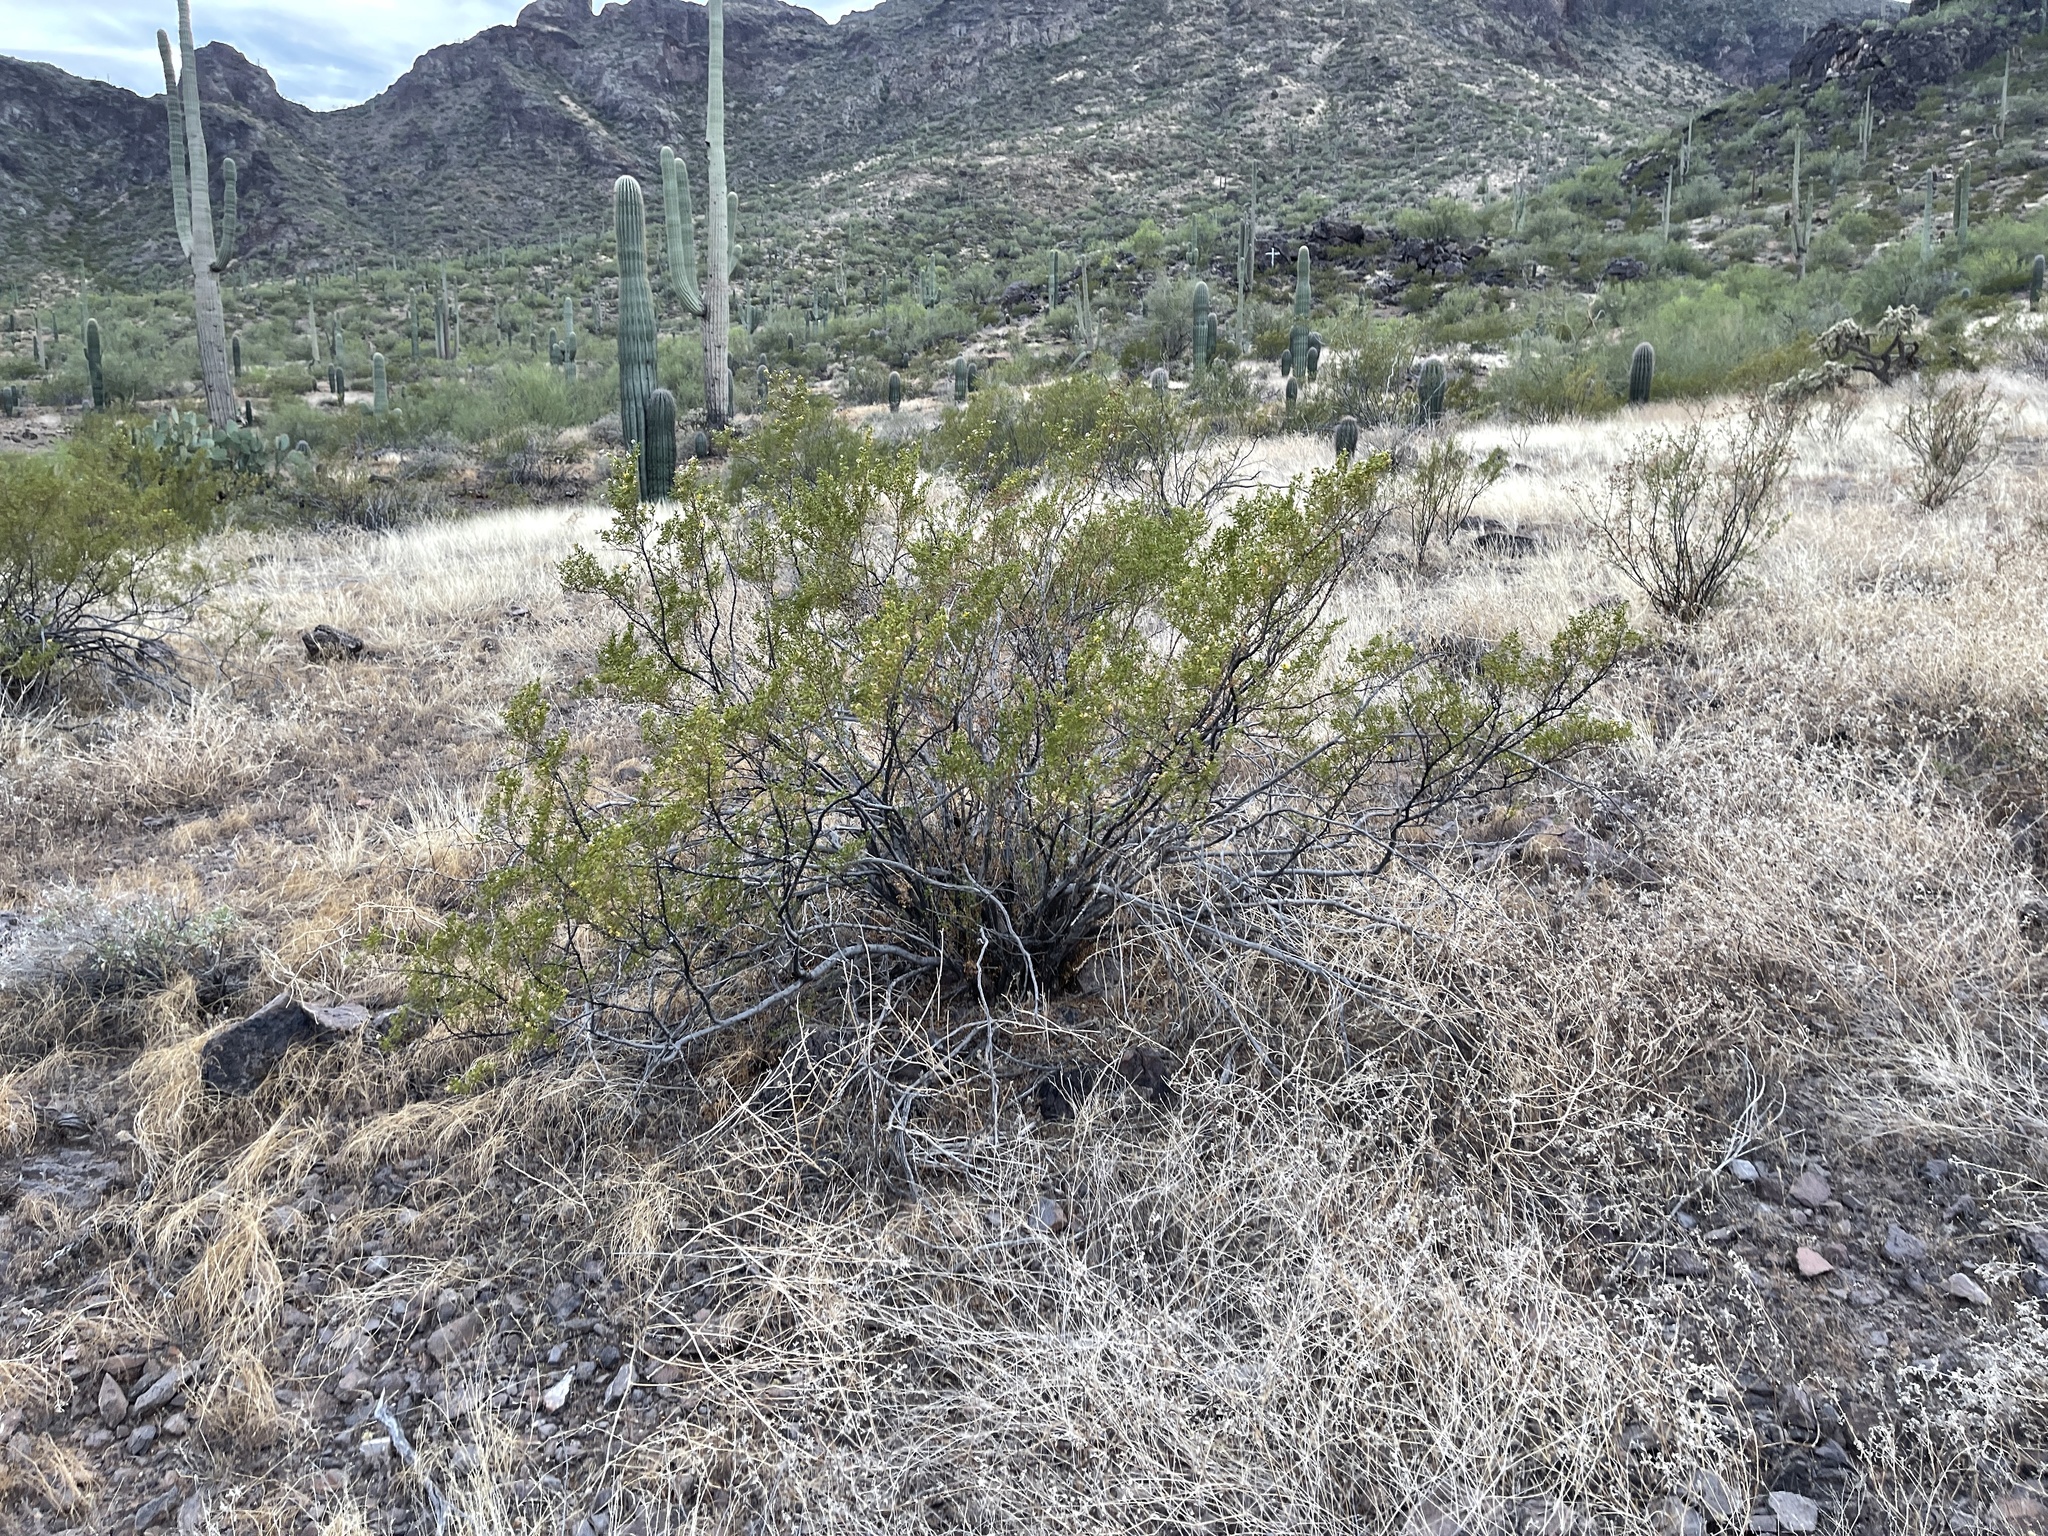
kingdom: Plantae
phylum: Tracheophyta
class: Magnoliopsida
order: Zygophyllales
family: Zygophyllaceae
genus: Larrea
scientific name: Larrea tridentata
